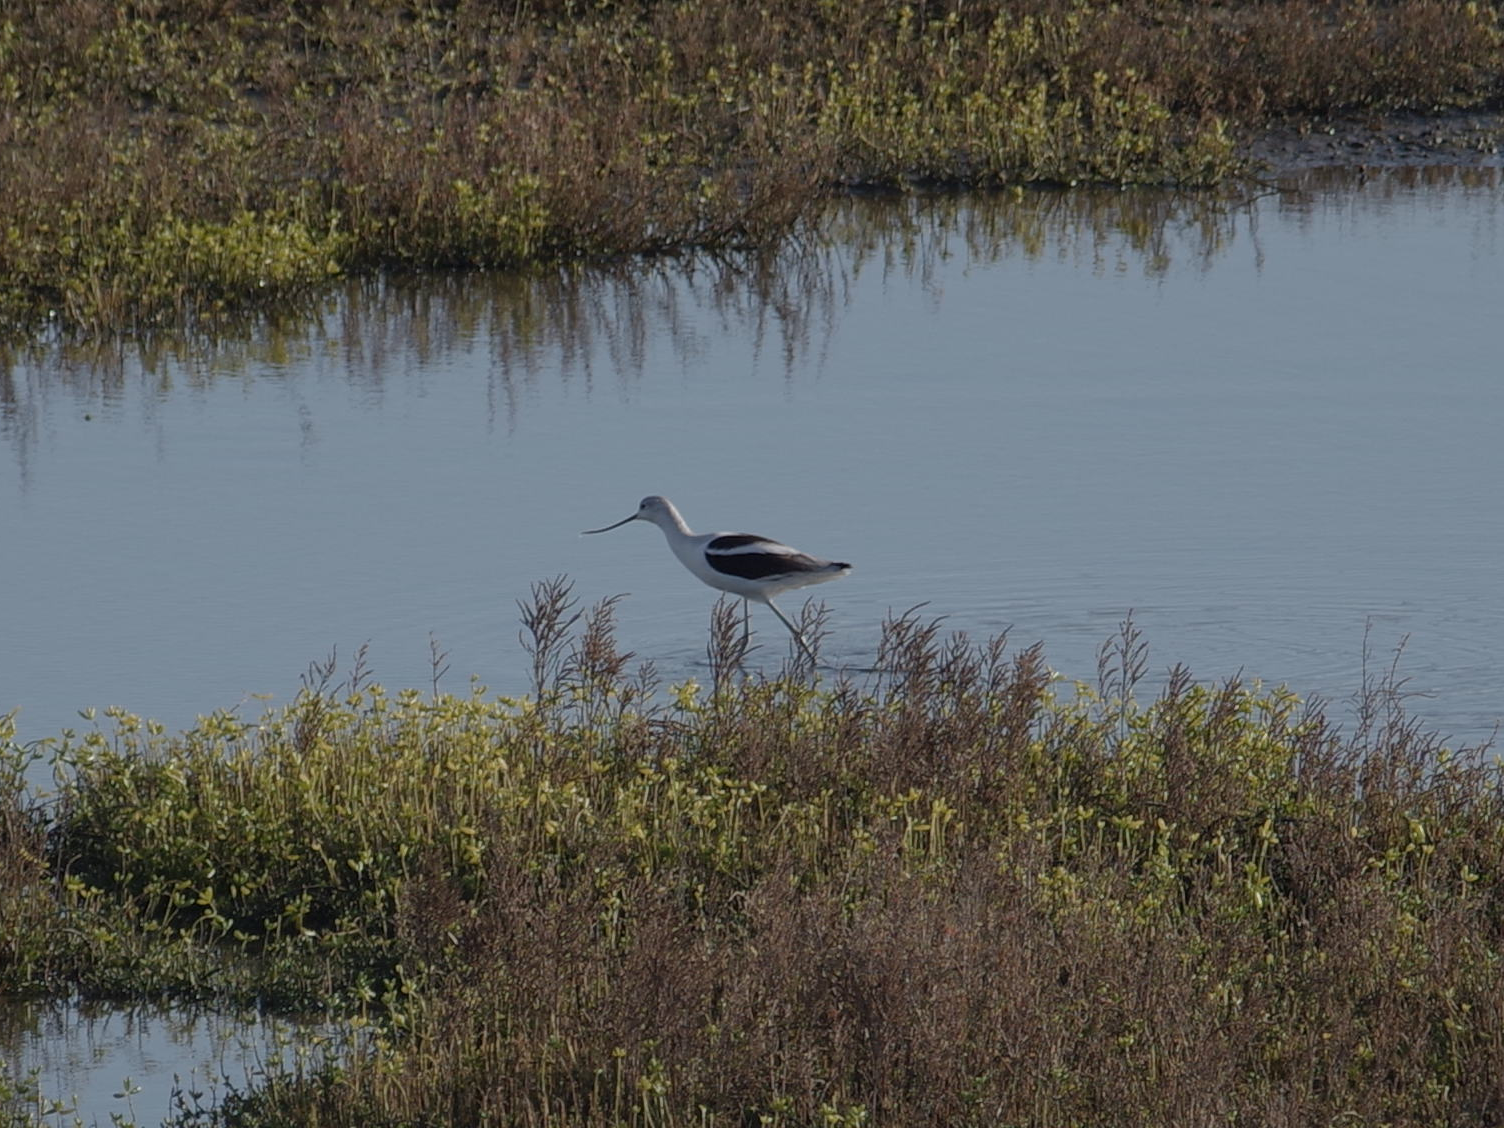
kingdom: Animalia
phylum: Chordata
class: Aves
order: Charadriiformes
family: Recurvirostridae
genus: Recurvirostra
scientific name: Recurvirostra americana
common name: American avocet
